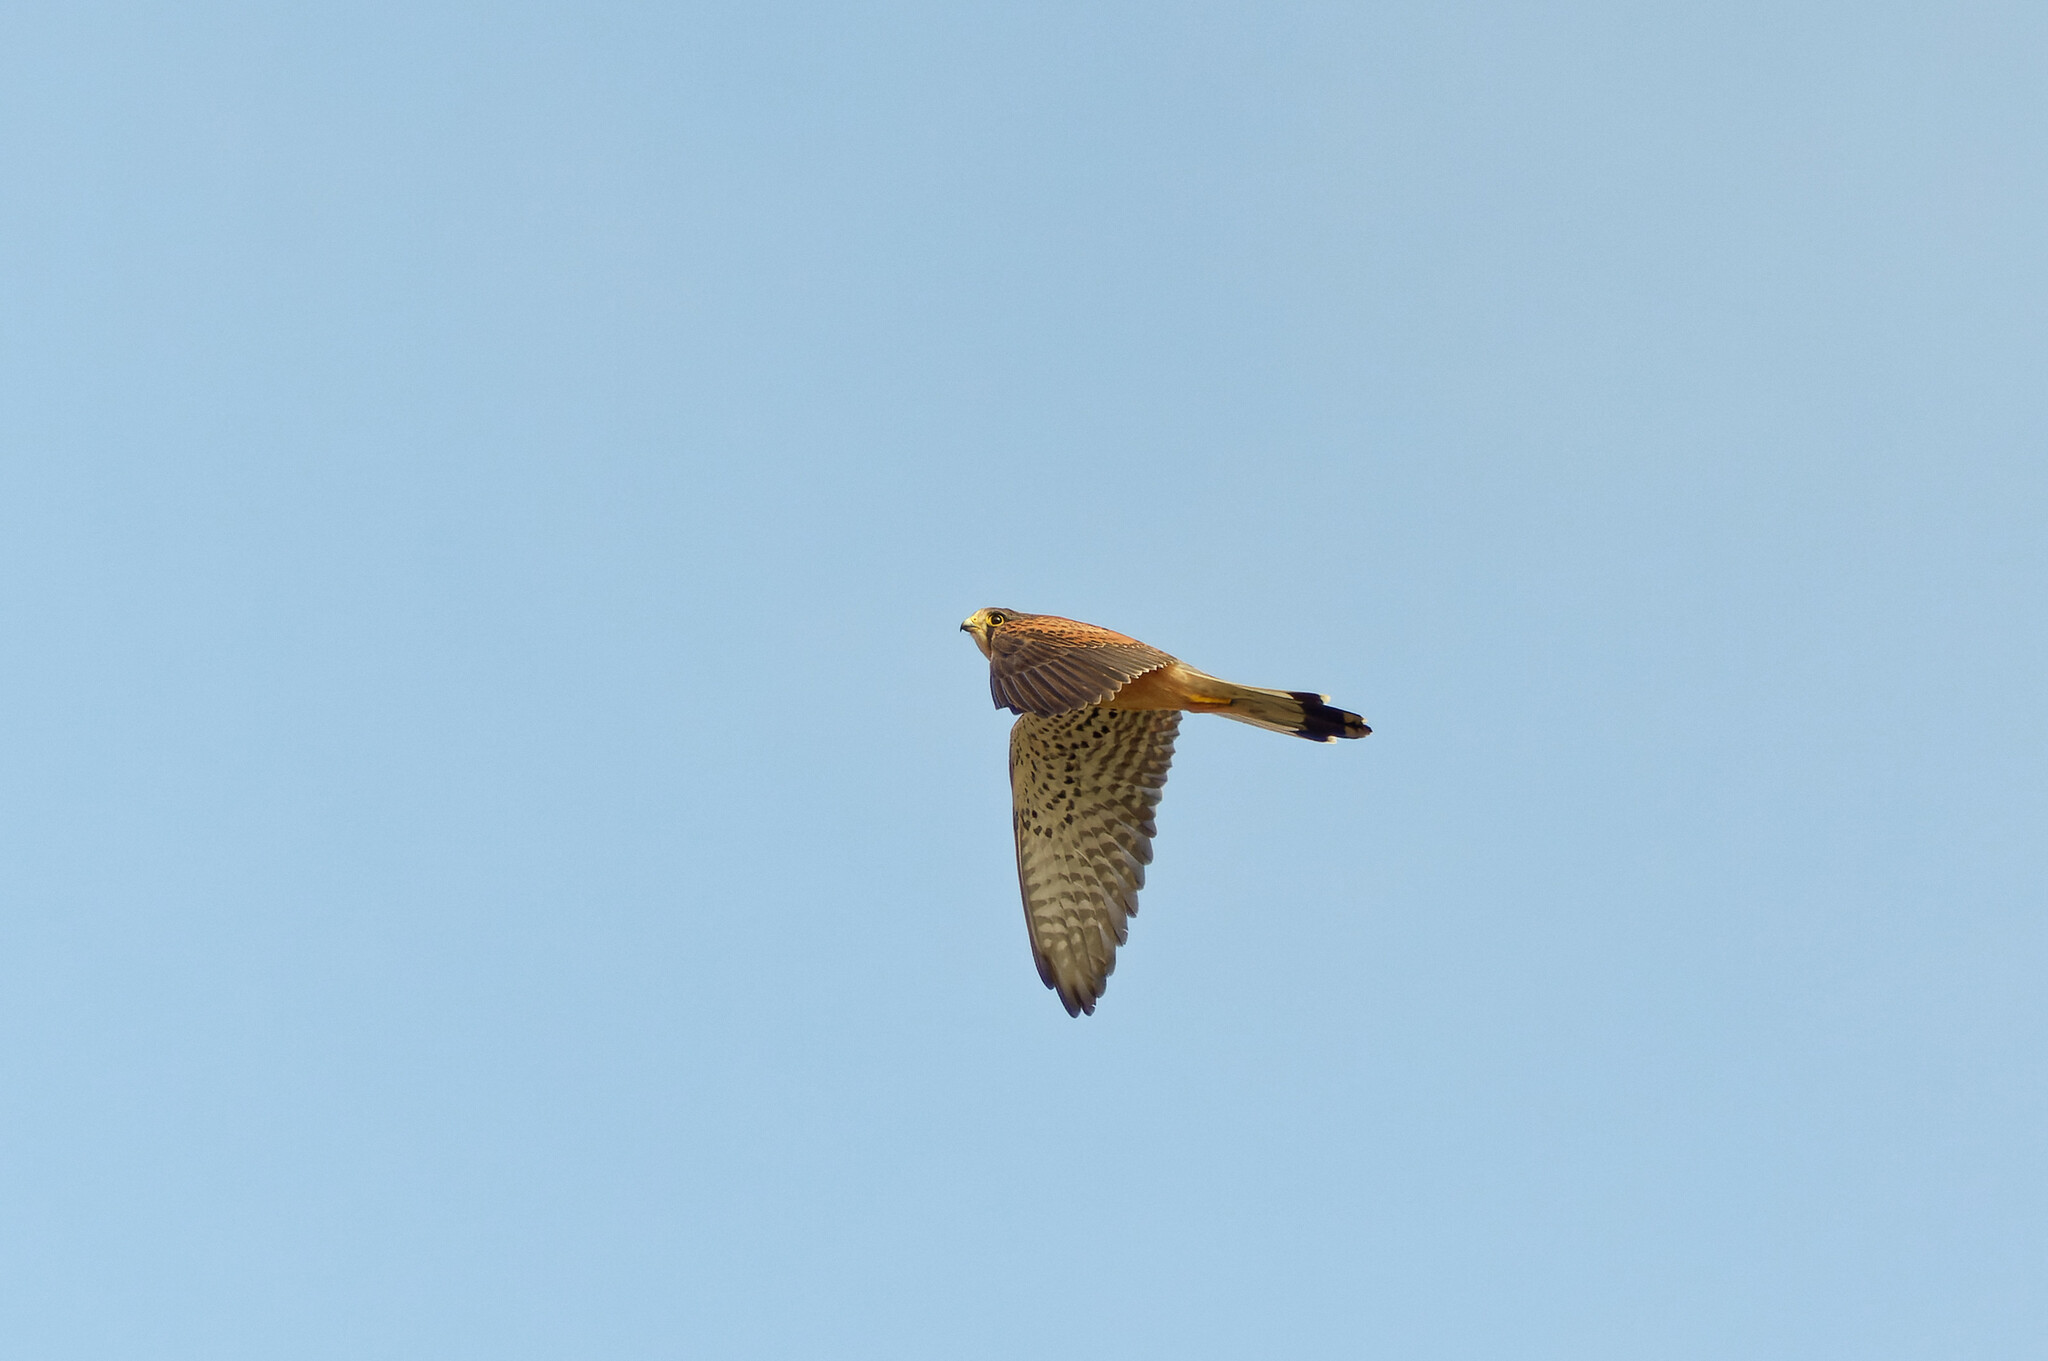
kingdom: Animalia
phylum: Chordata
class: Aves
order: Falconiformes
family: Falconidae
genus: Falco
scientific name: Falco tinnunculus
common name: Common kestrel
